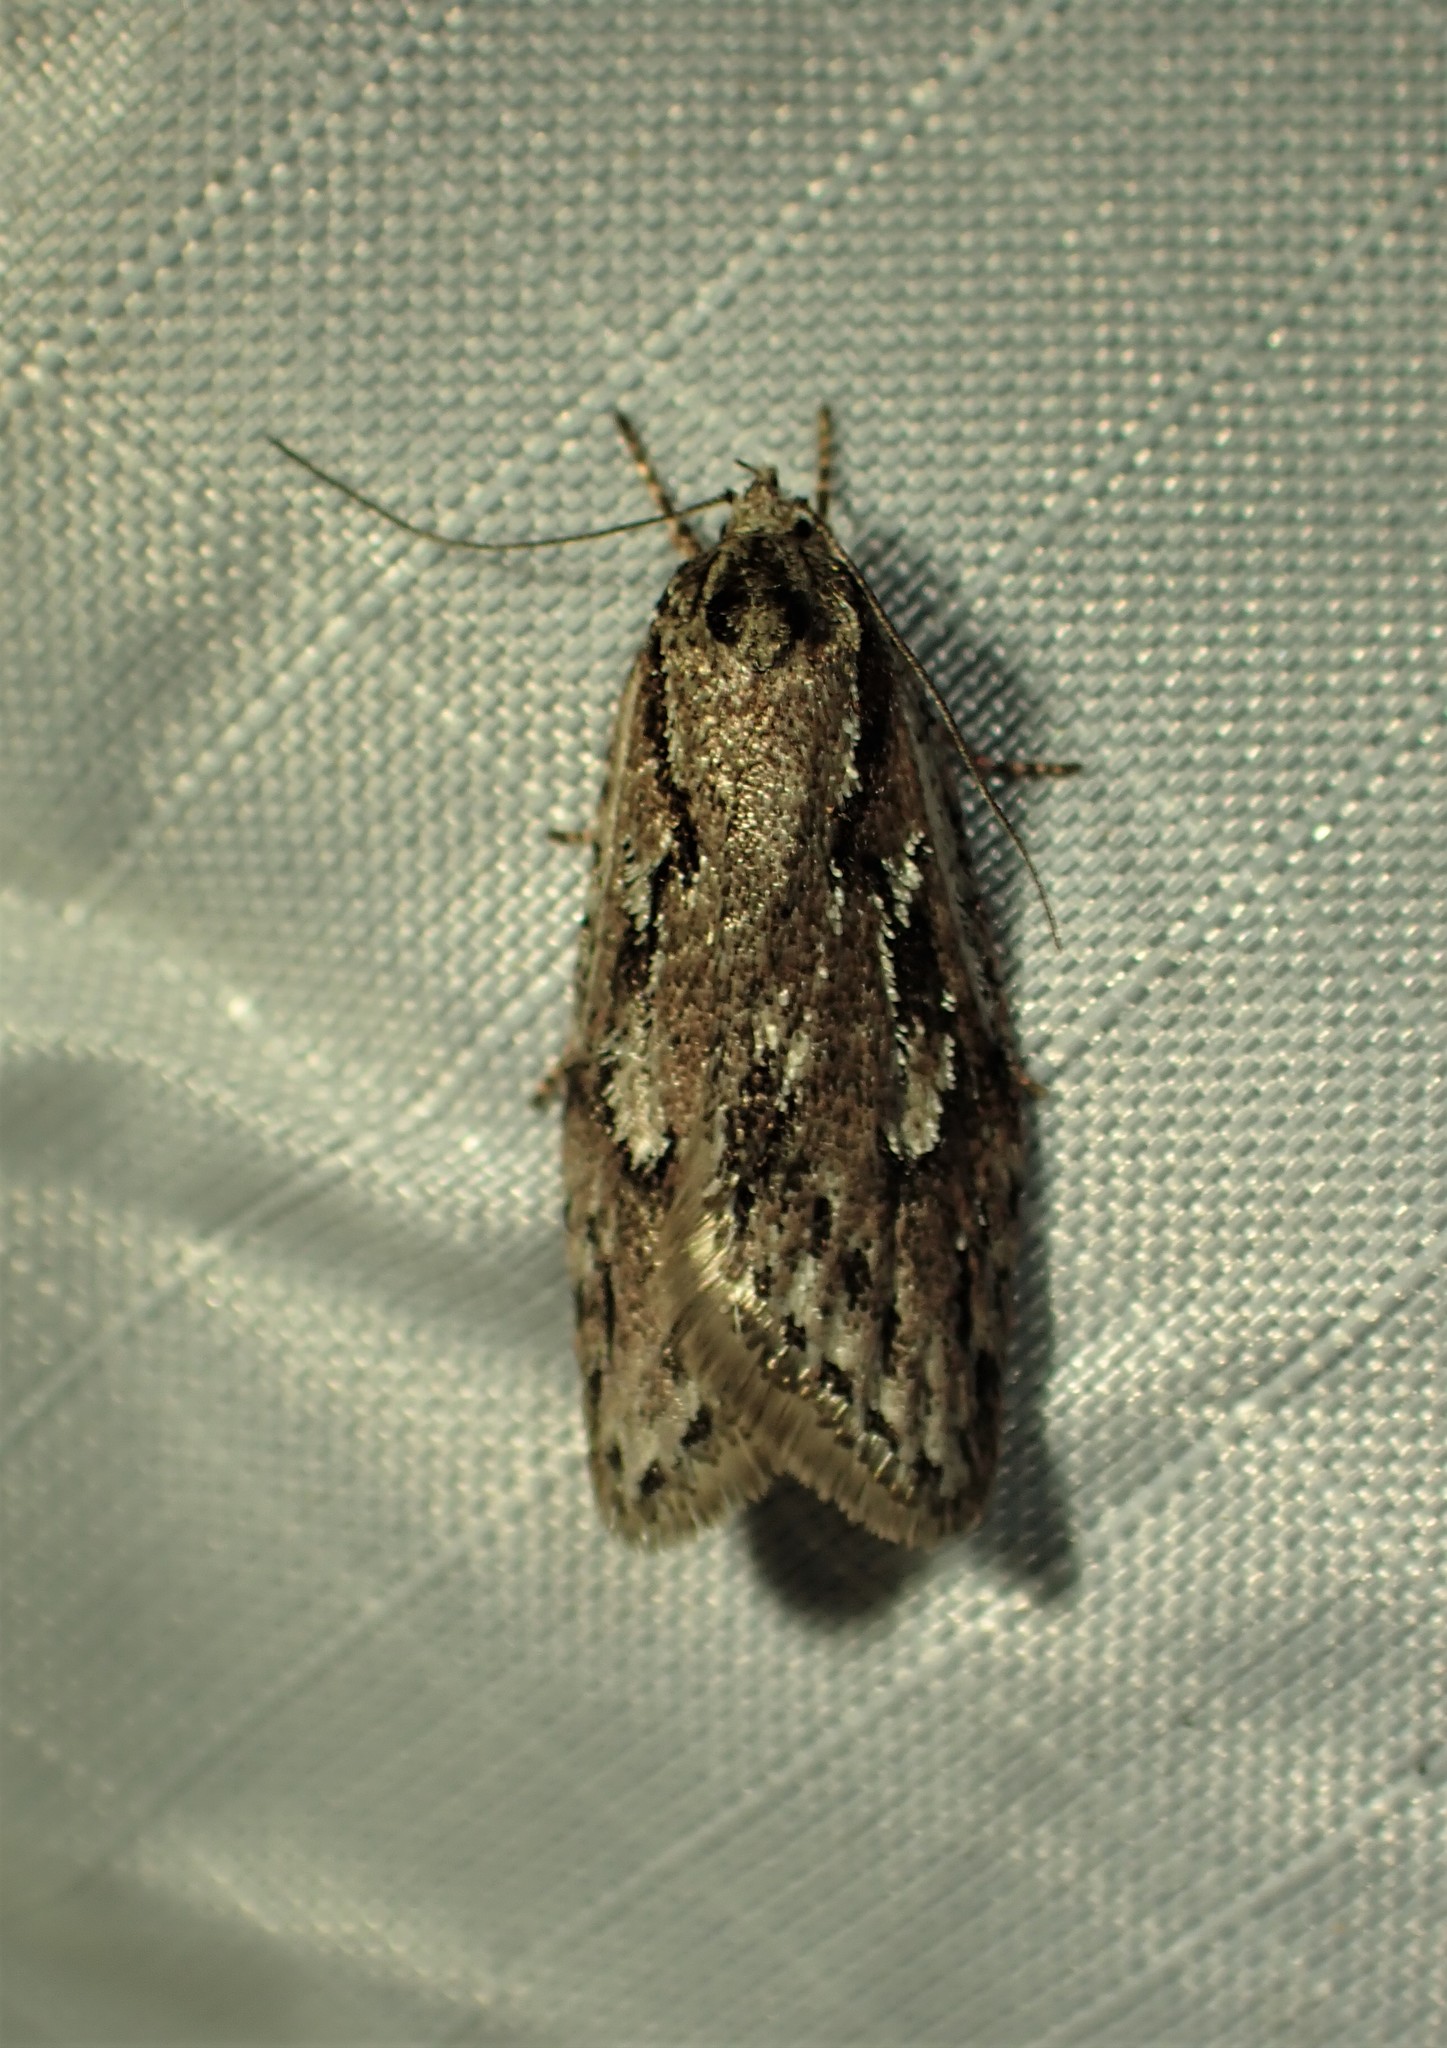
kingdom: Animalia
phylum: Arthropoda
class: Insecta
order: Lepidoptera
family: Depressariidae
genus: Semioscopis
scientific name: Semioscopis aurorella
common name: Aurora flatbody moth
